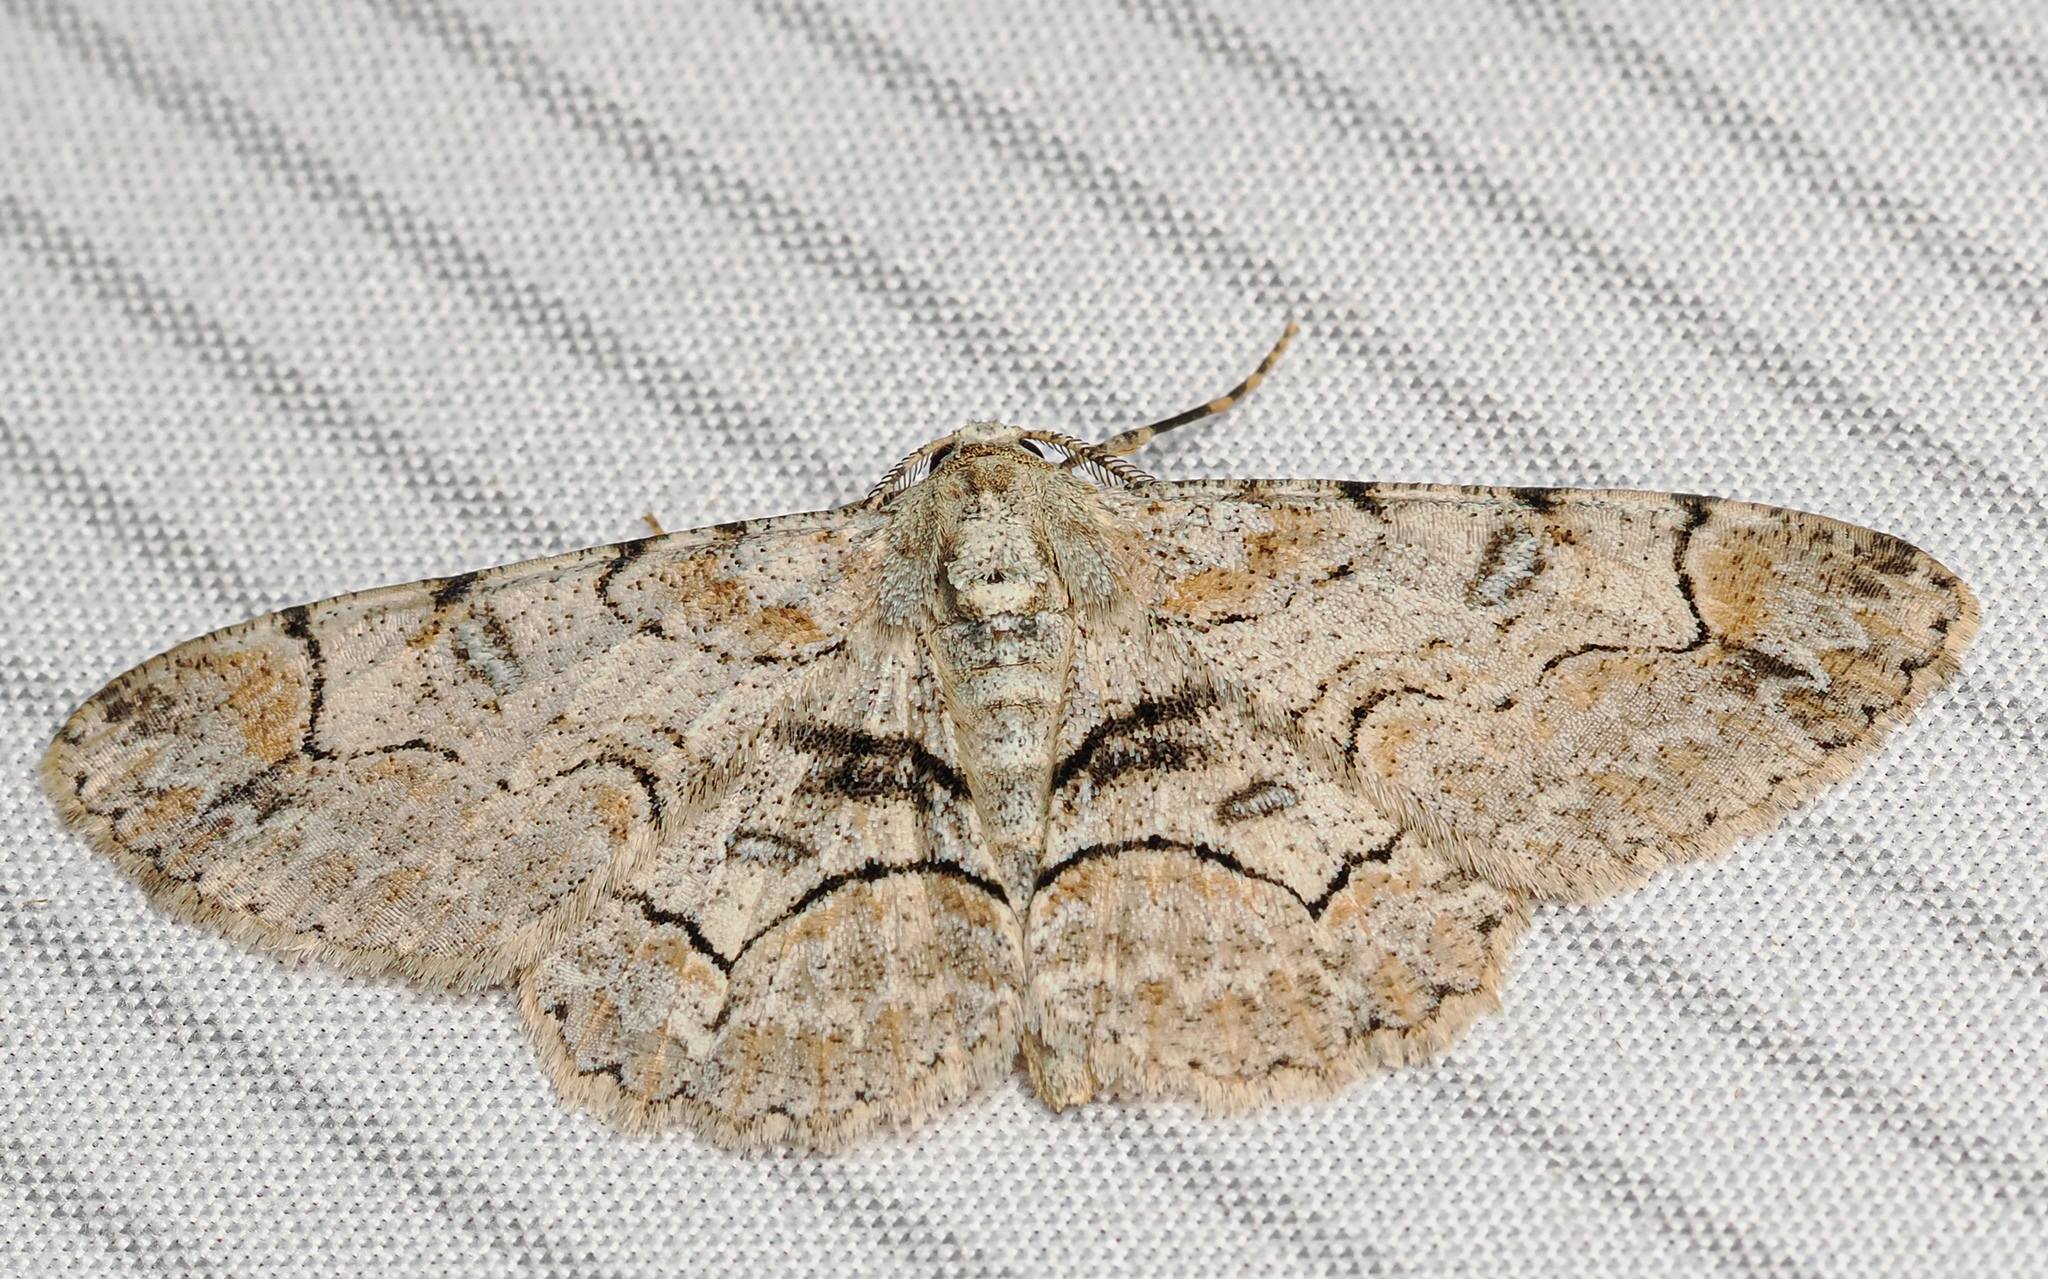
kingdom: Animalia
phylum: Arthropoda
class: Insecta
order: Lepidoptera
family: Geometridae
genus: Iridopsis
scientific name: Iridopsis larvaria
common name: Bent-line gray
